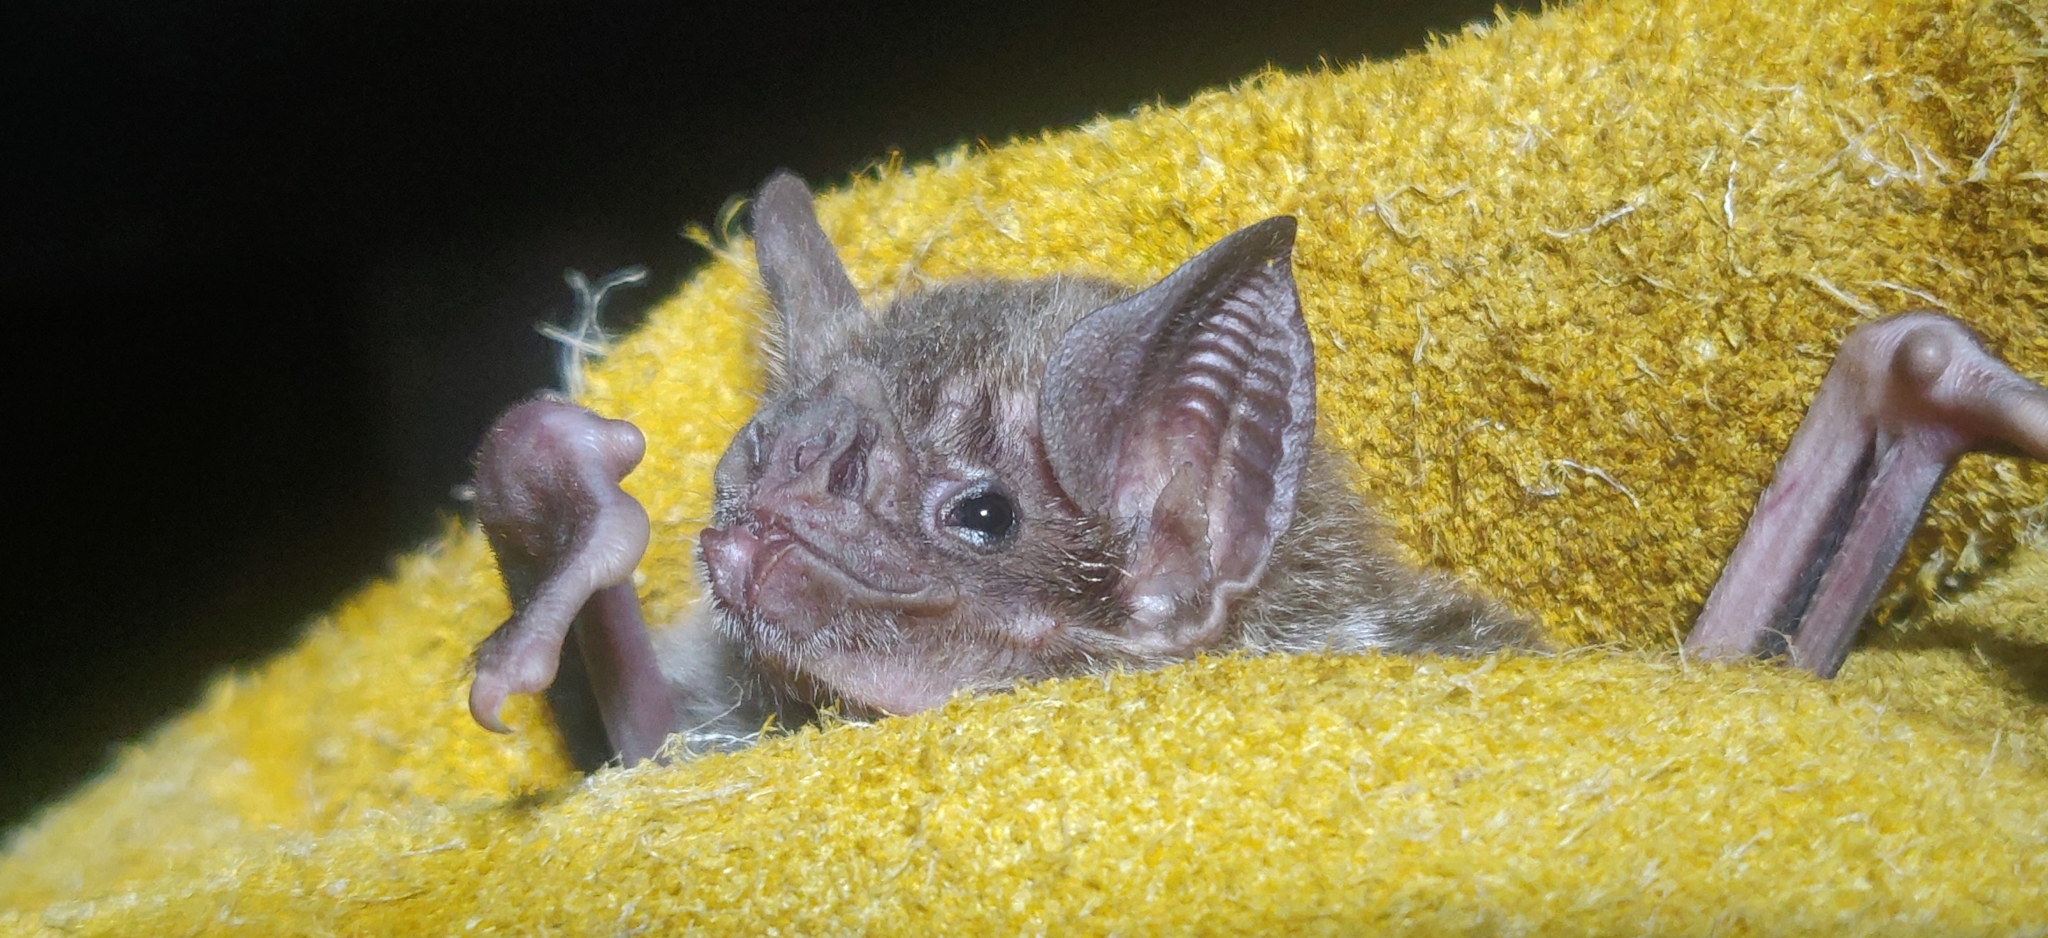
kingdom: Animalia
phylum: Chordata
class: Mammalia
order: Chiroptera
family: Phyllostomidae
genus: Desmodus
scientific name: Desmodus rotundus
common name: Common vampire bat
